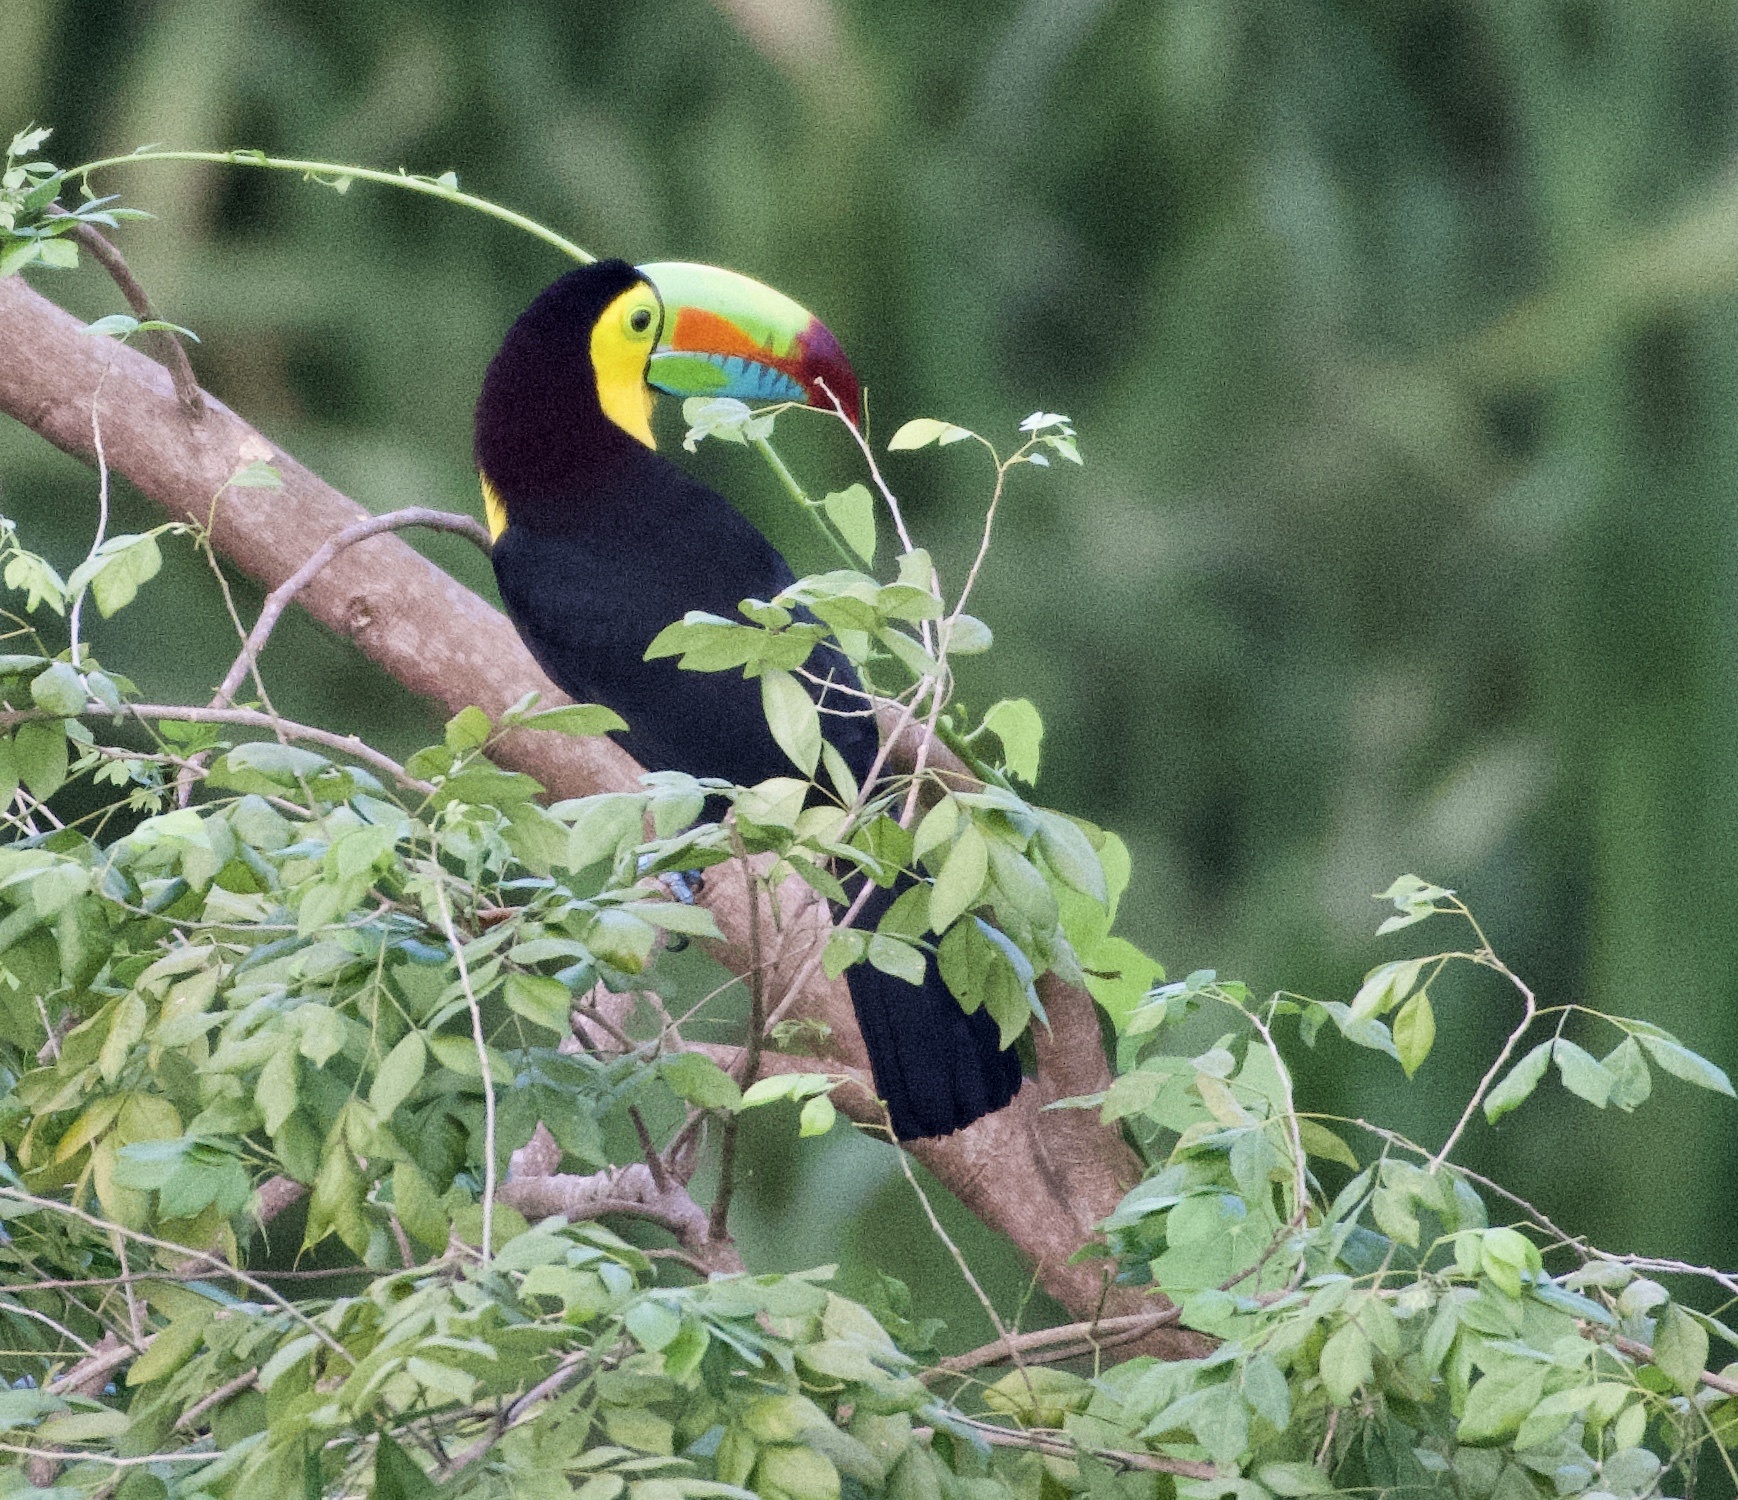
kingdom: Animalia
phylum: Chordata
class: Aves
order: Piciformes
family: Ramphastidae
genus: Ramphastos
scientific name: Ramphastos sulfuratus
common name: Keel-billed toucan
